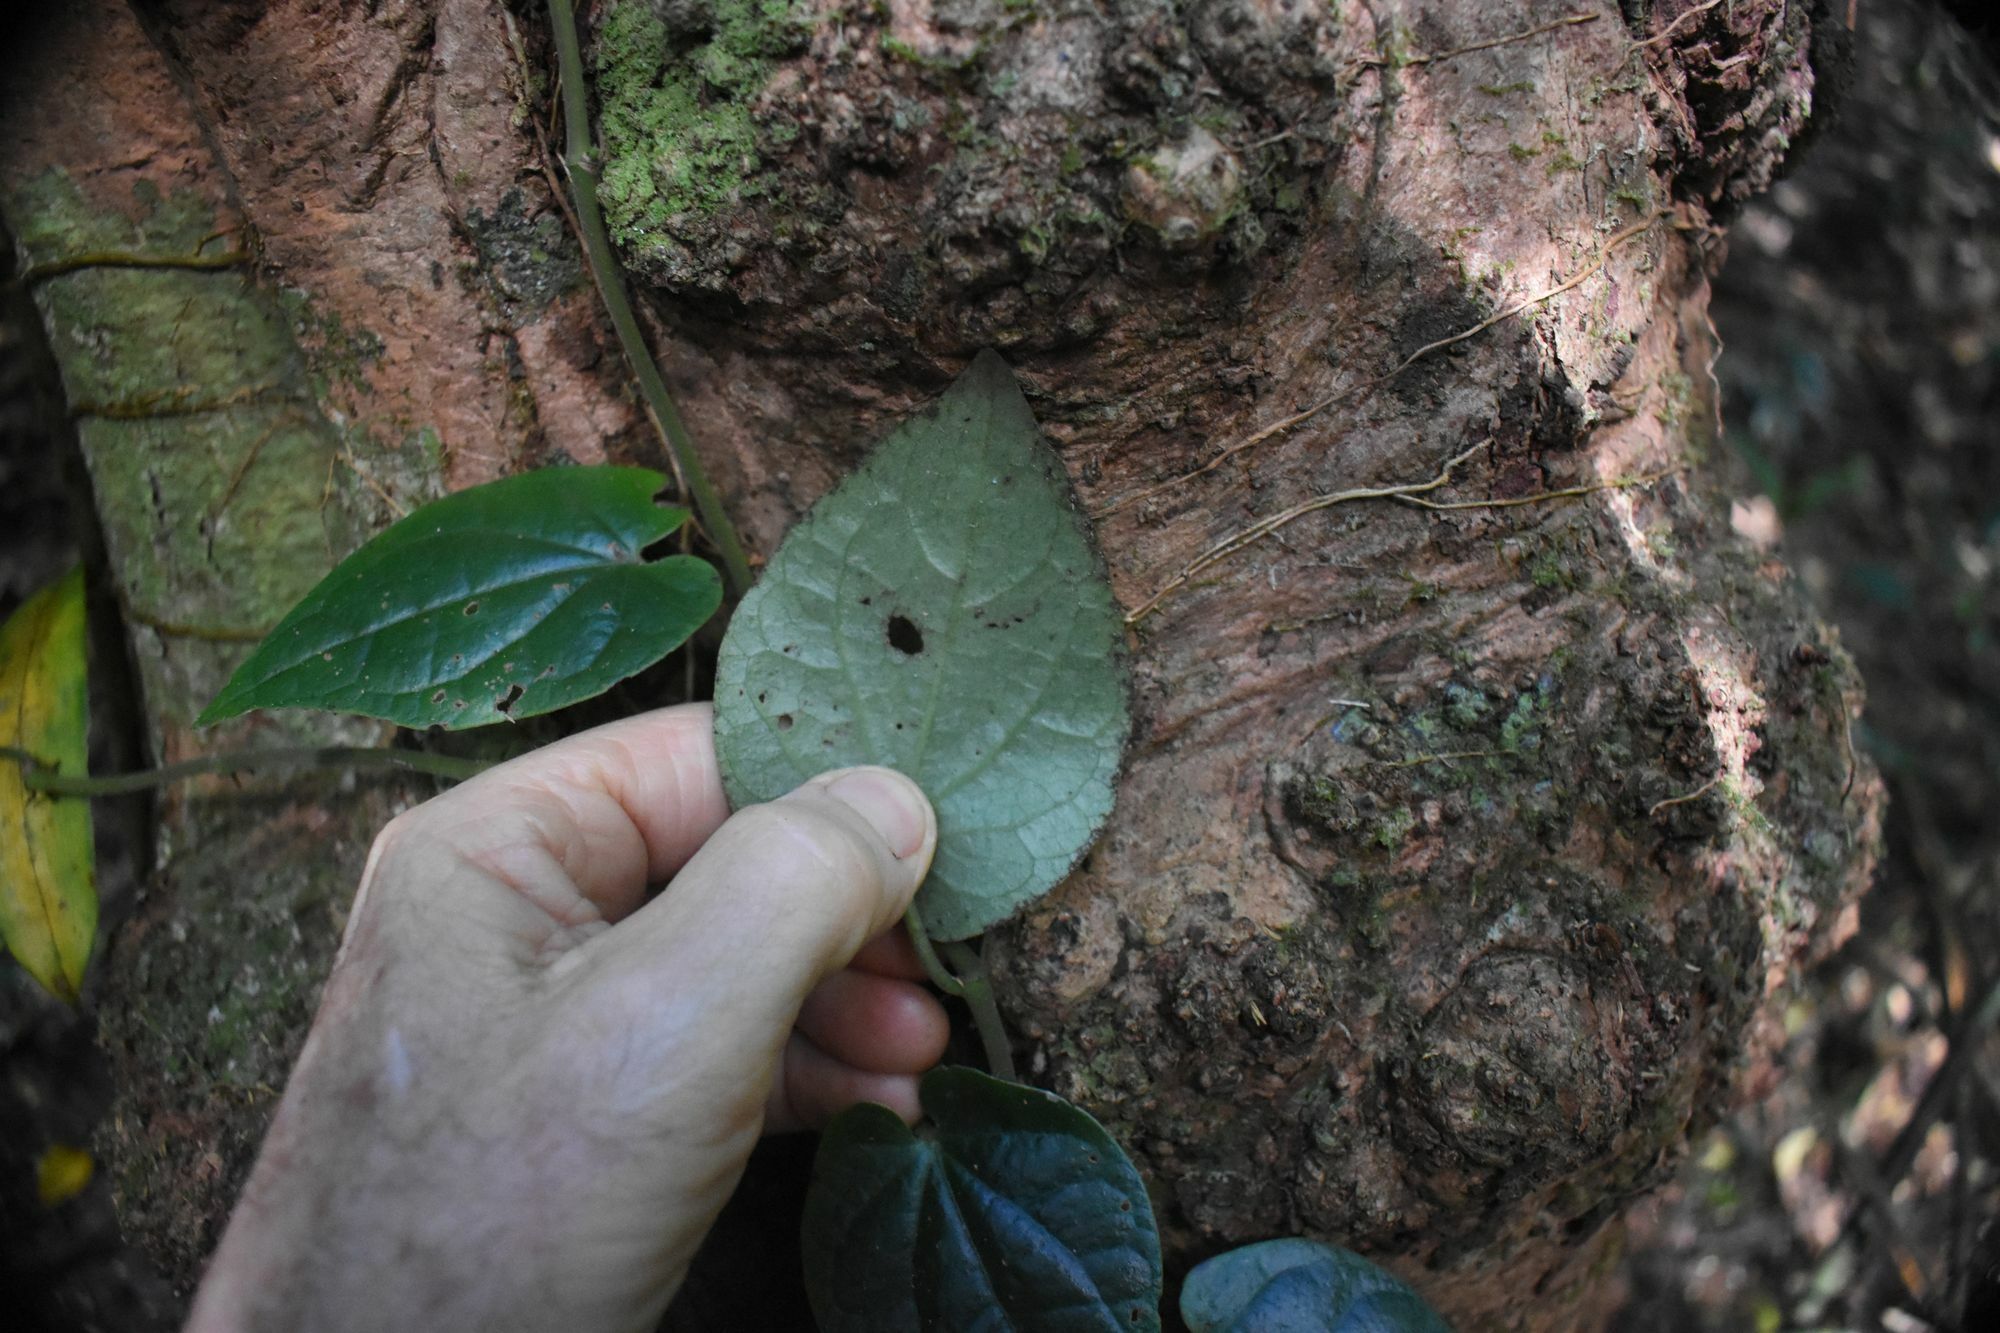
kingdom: Plantae
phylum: Tracheophyta
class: Magnoliopsida
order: Piperales
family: Piperaceae
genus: Piper
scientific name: Piper lanatum
